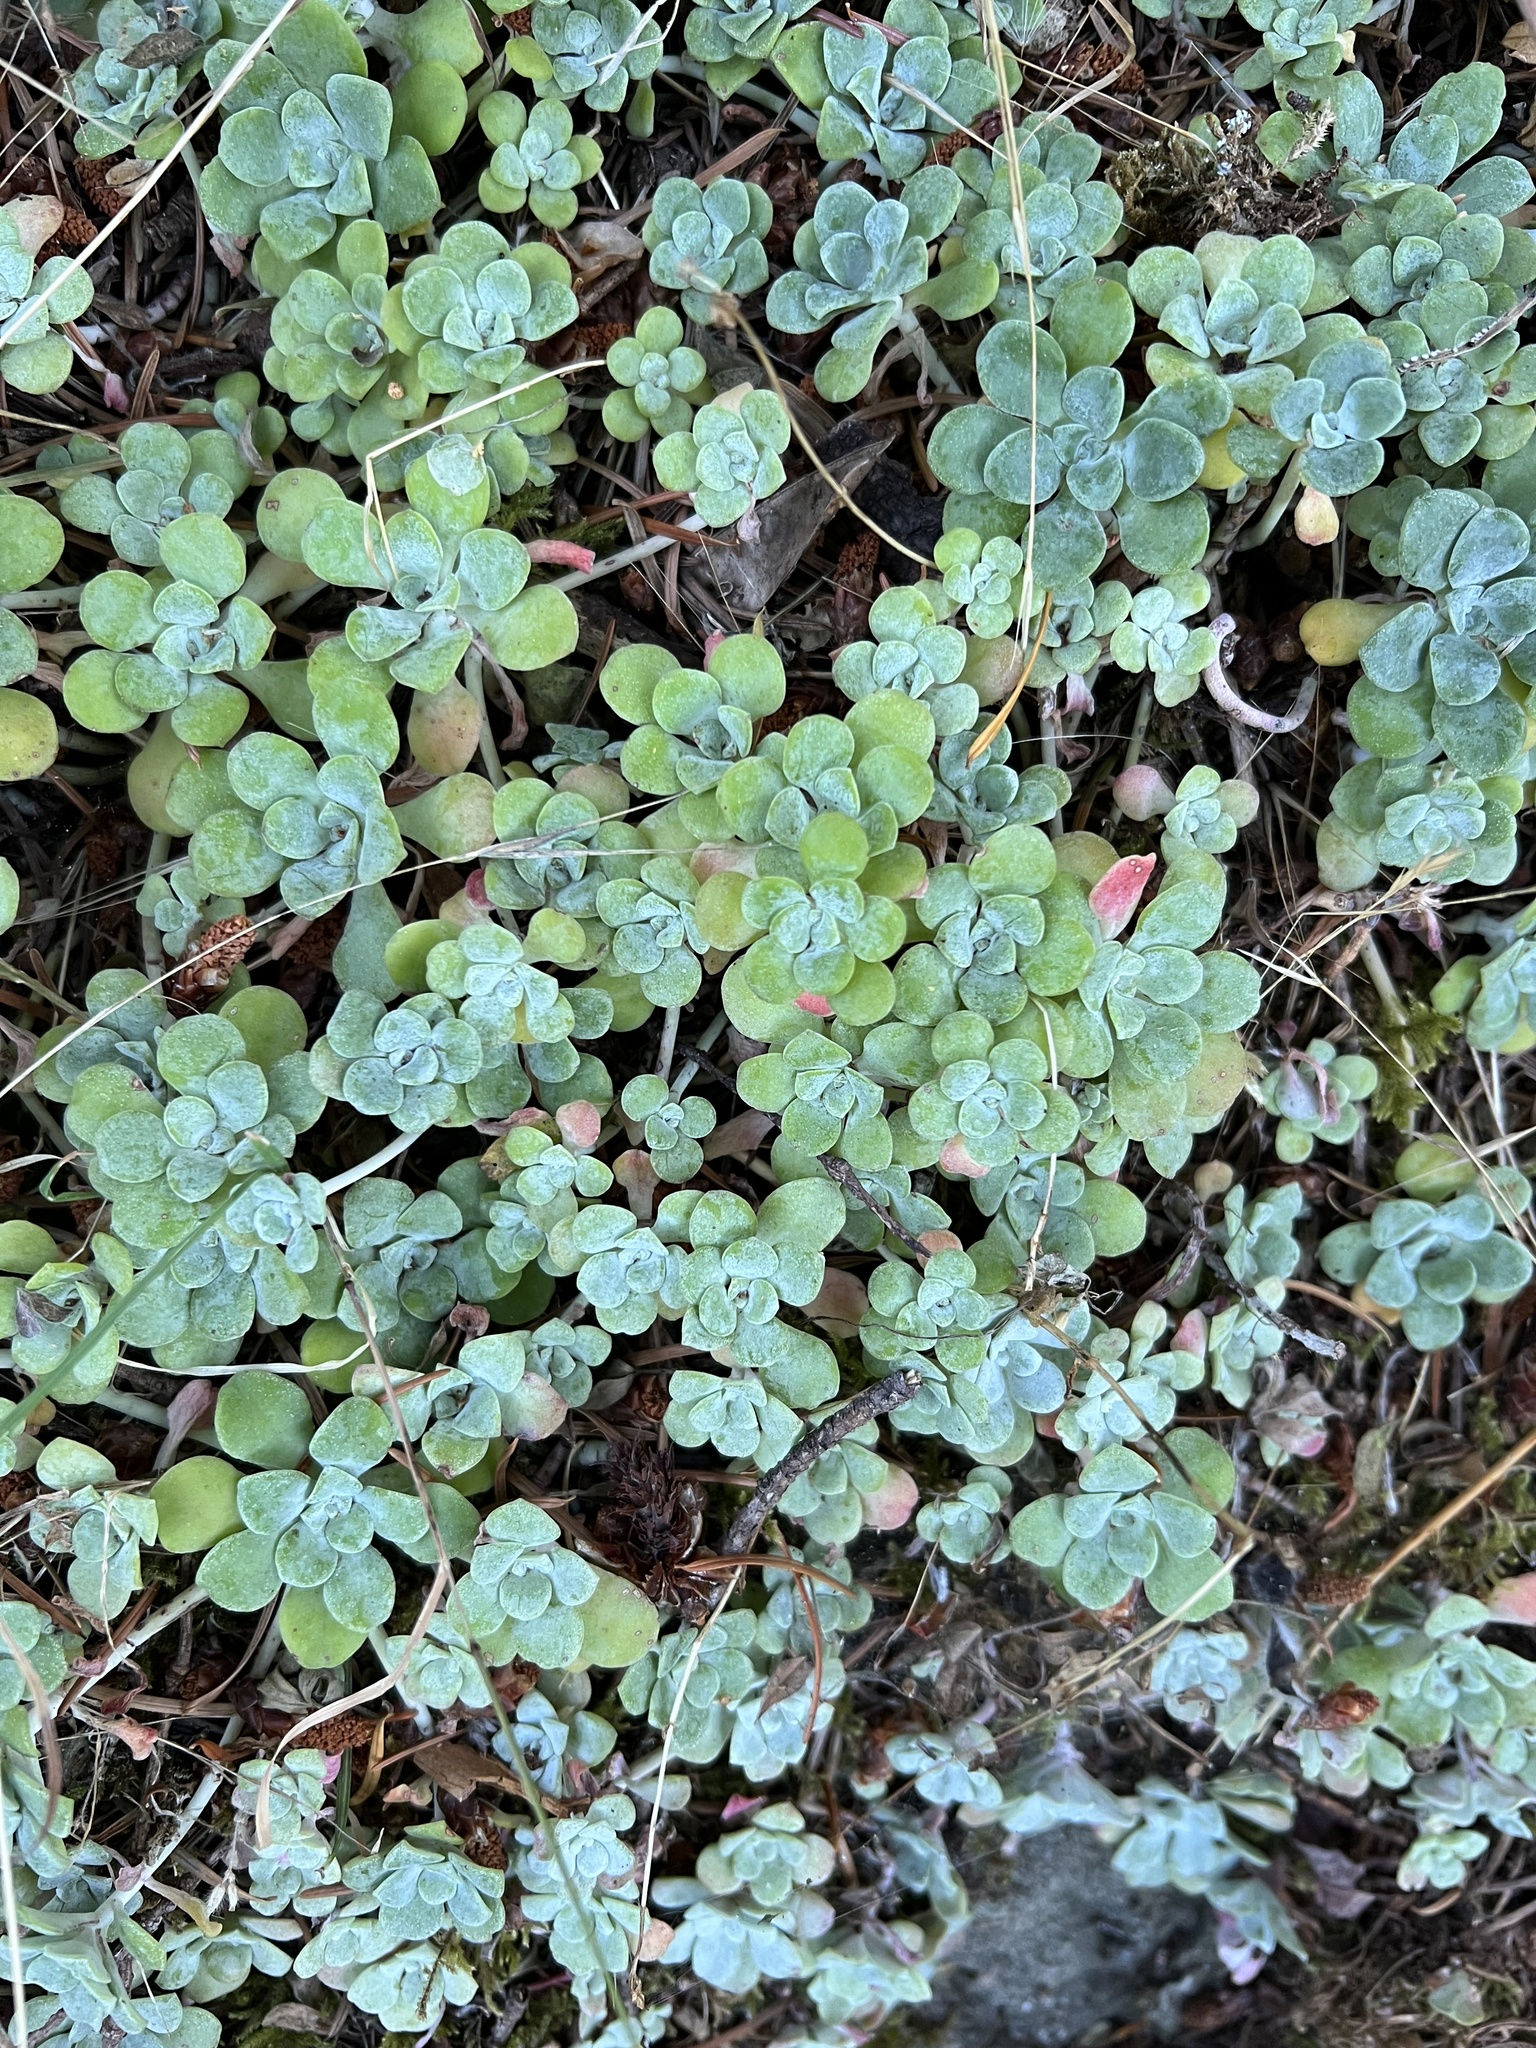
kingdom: Plantae
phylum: Tracheophyta
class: Magnoliopsida
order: Saxifragales
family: Crassulaceae
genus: Sedum
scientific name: Sedum spathulifolium
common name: Colorado stonecrop
